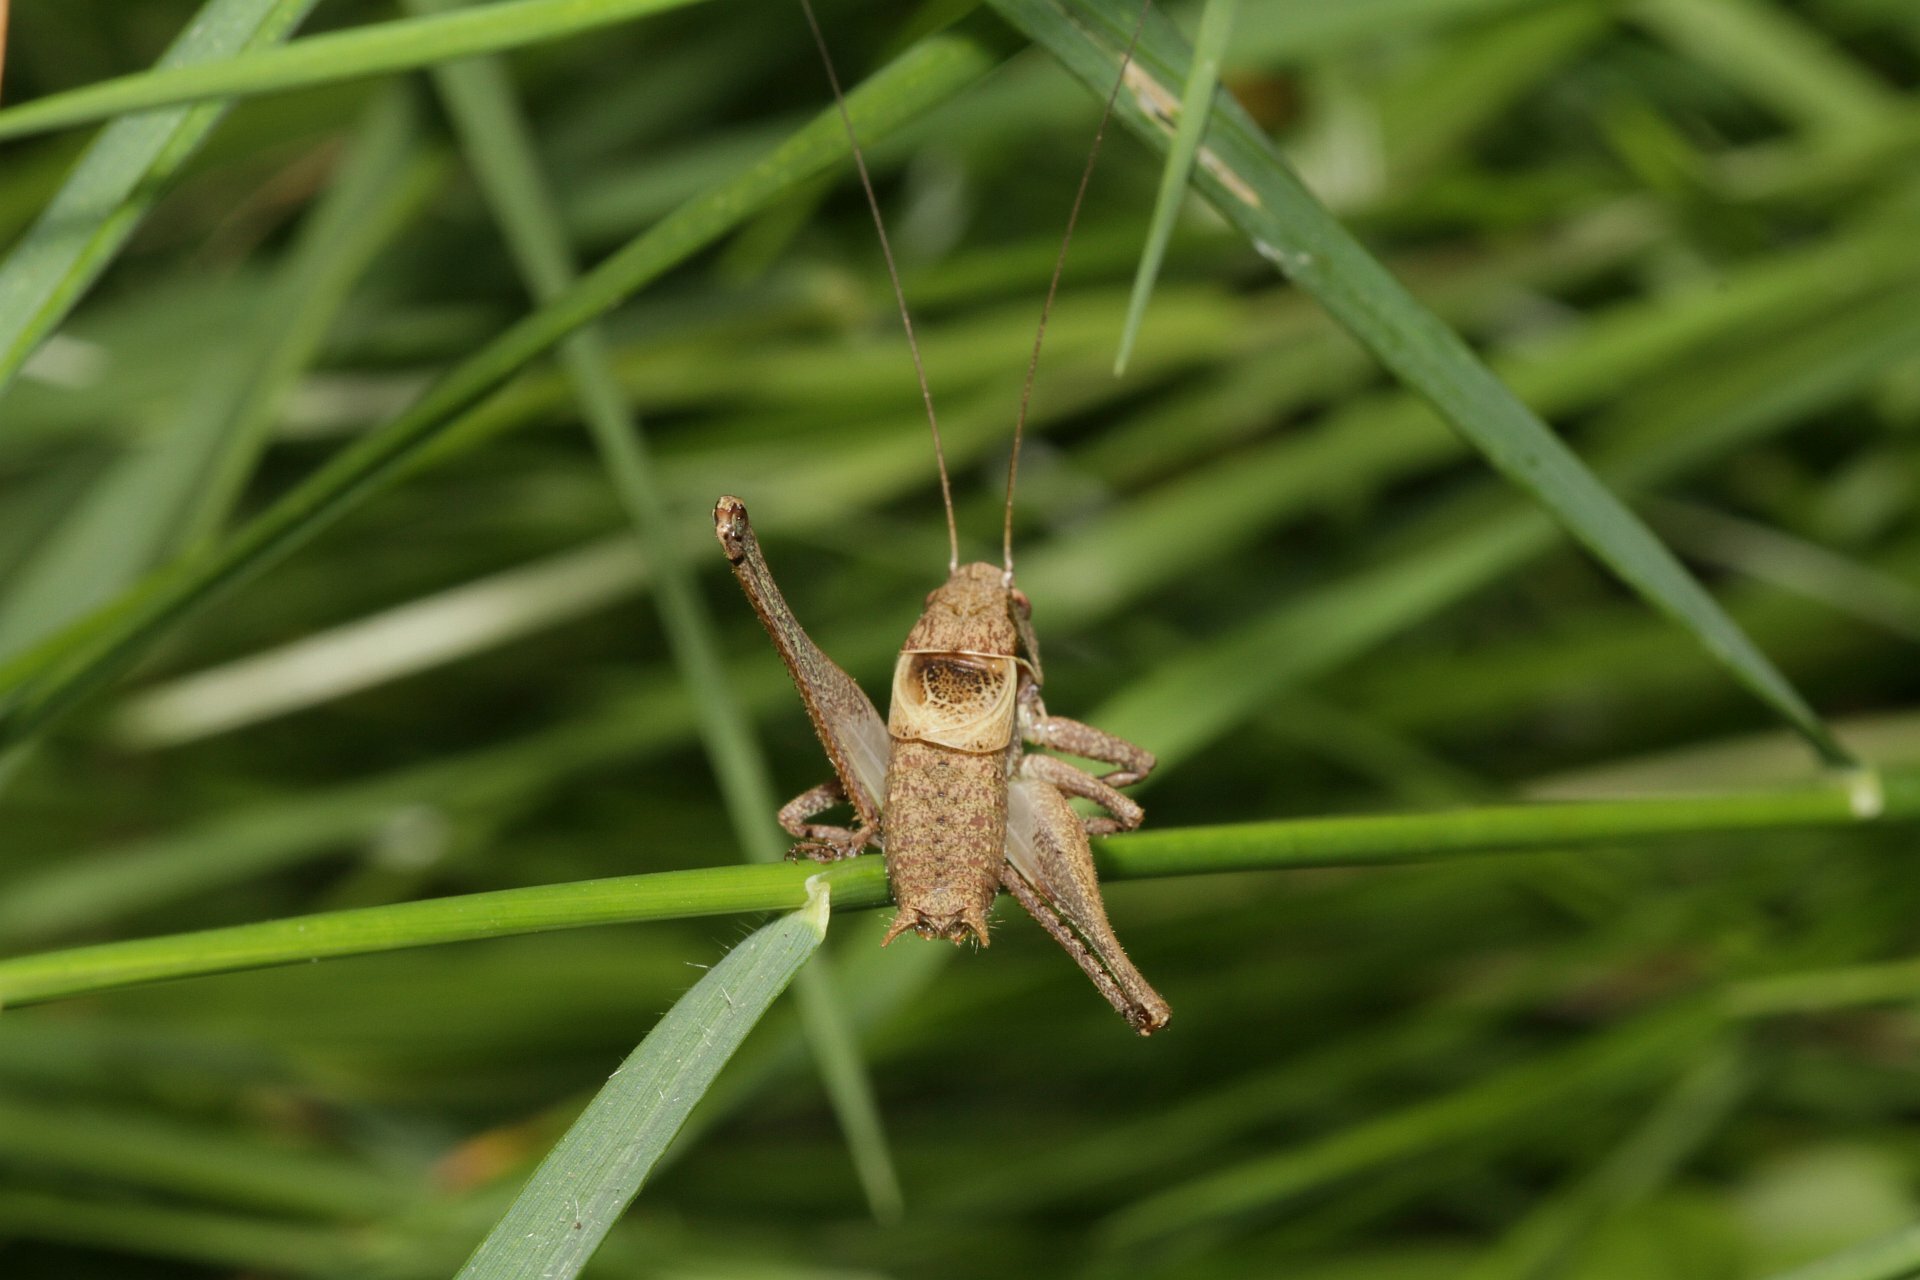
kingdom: Animalia
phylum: Arthropoda
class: Insecta
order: Orthoptera
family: Tettigoniidae
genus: Pholidoptera
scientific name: Pholidoptera griseoaptera
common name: Dark bush-cricket
